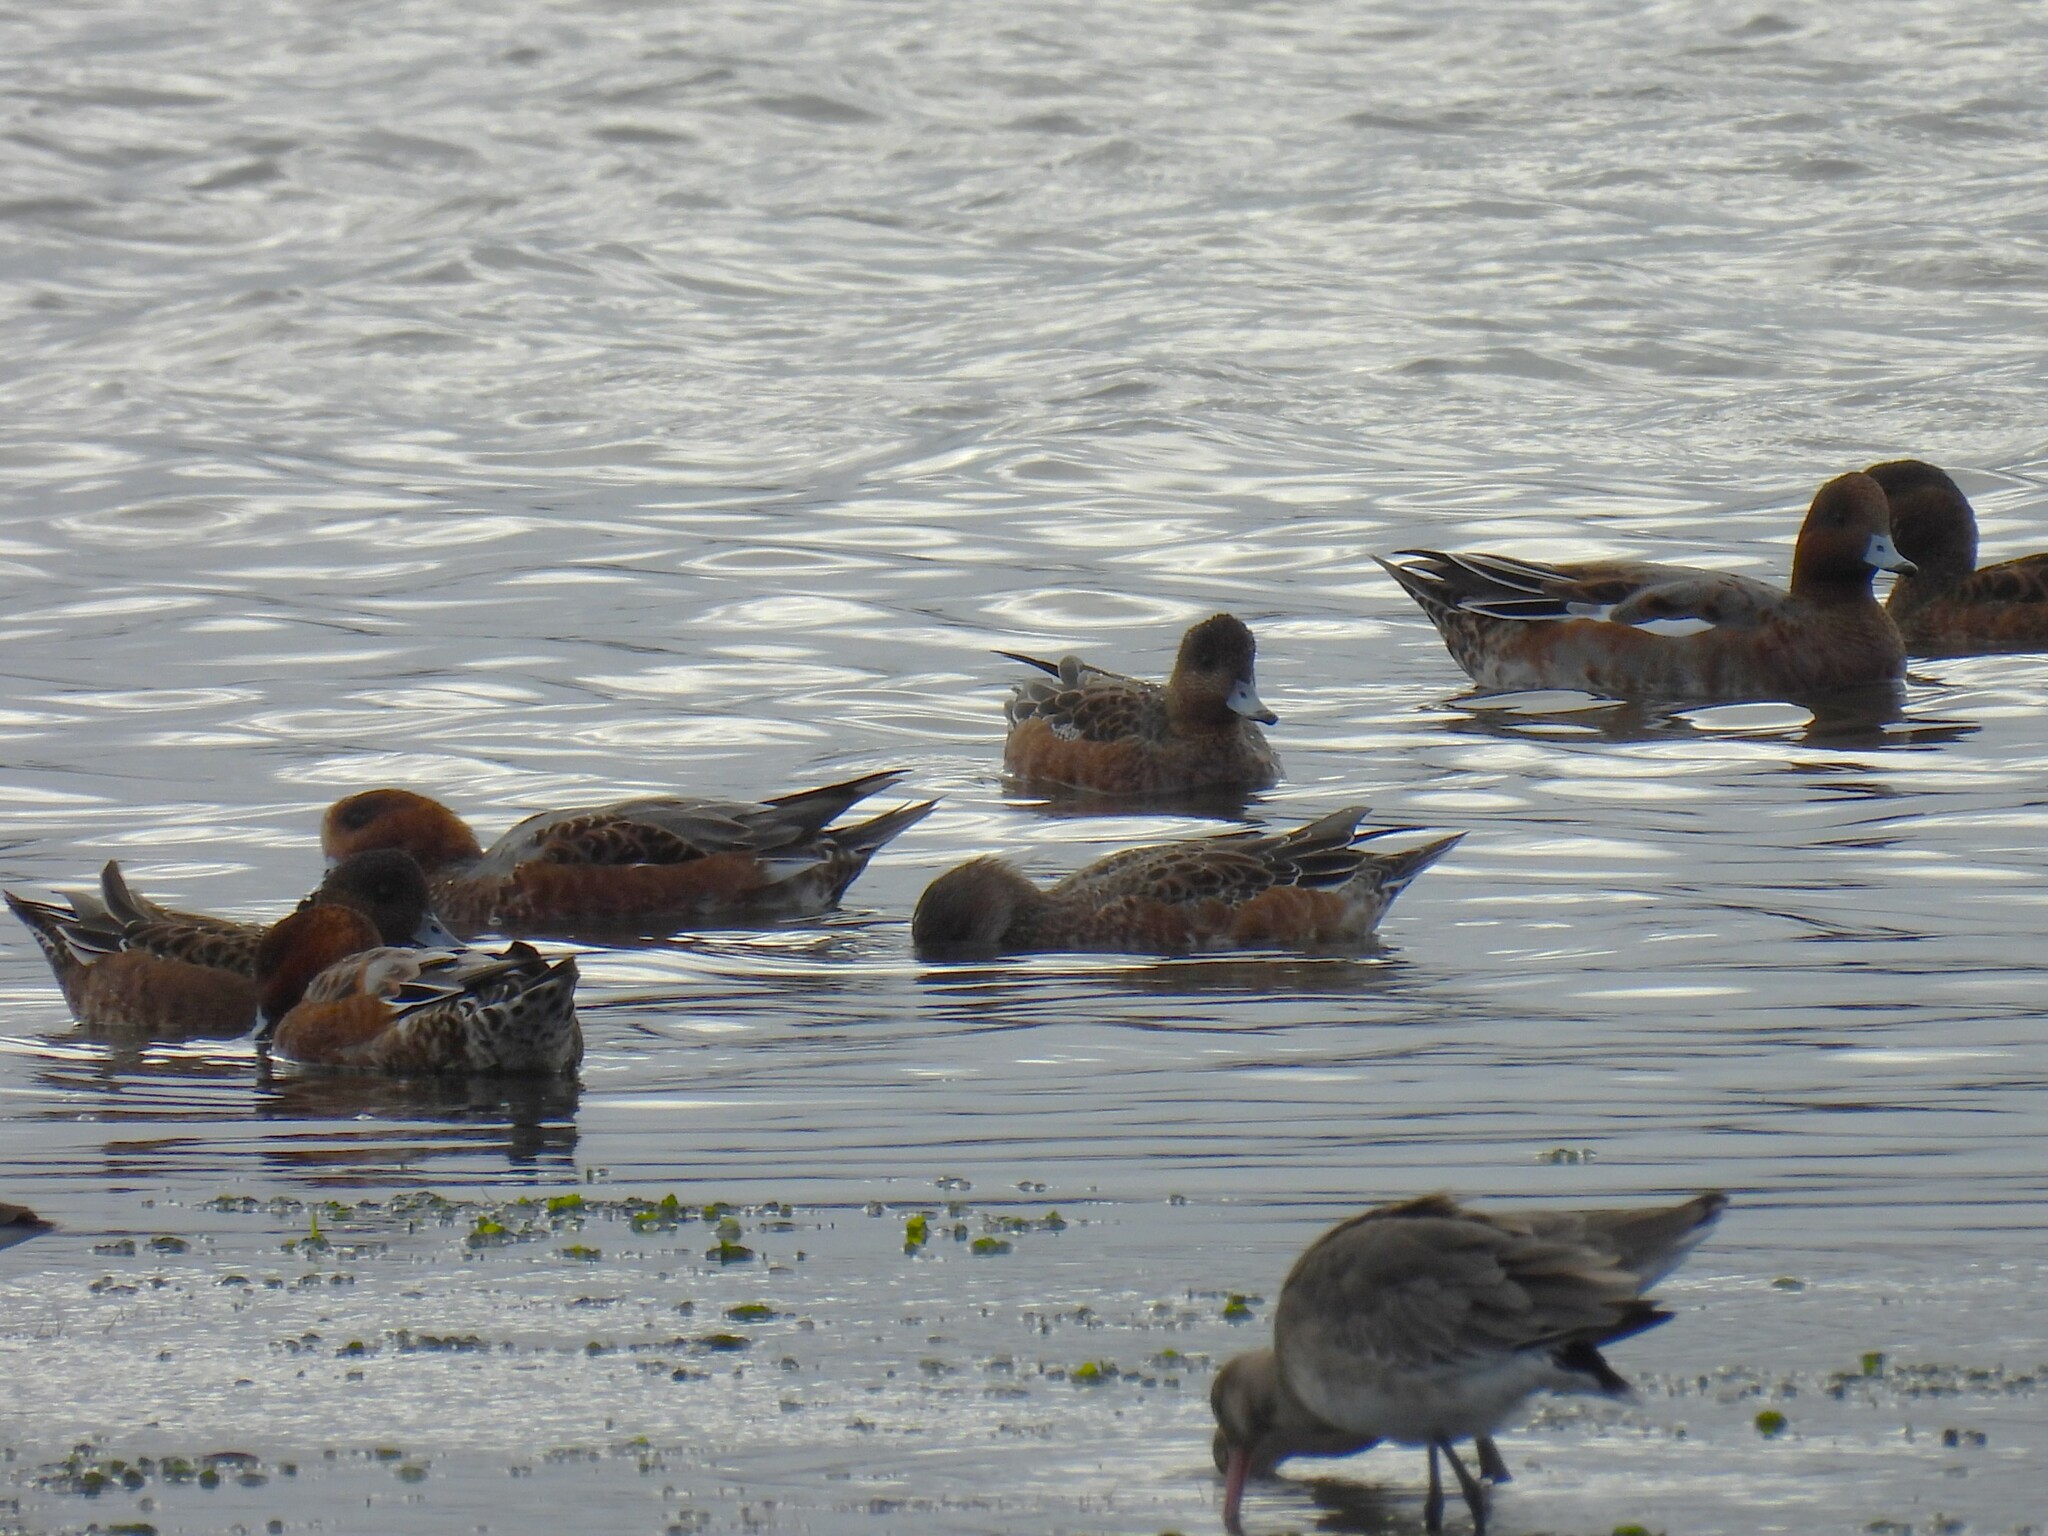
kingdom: Animalia
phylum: Chordata
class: Aves
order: Anseriformes
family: Anatidae
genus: Mareca
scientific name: Mareca penelope
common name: Eurasian wigeon
